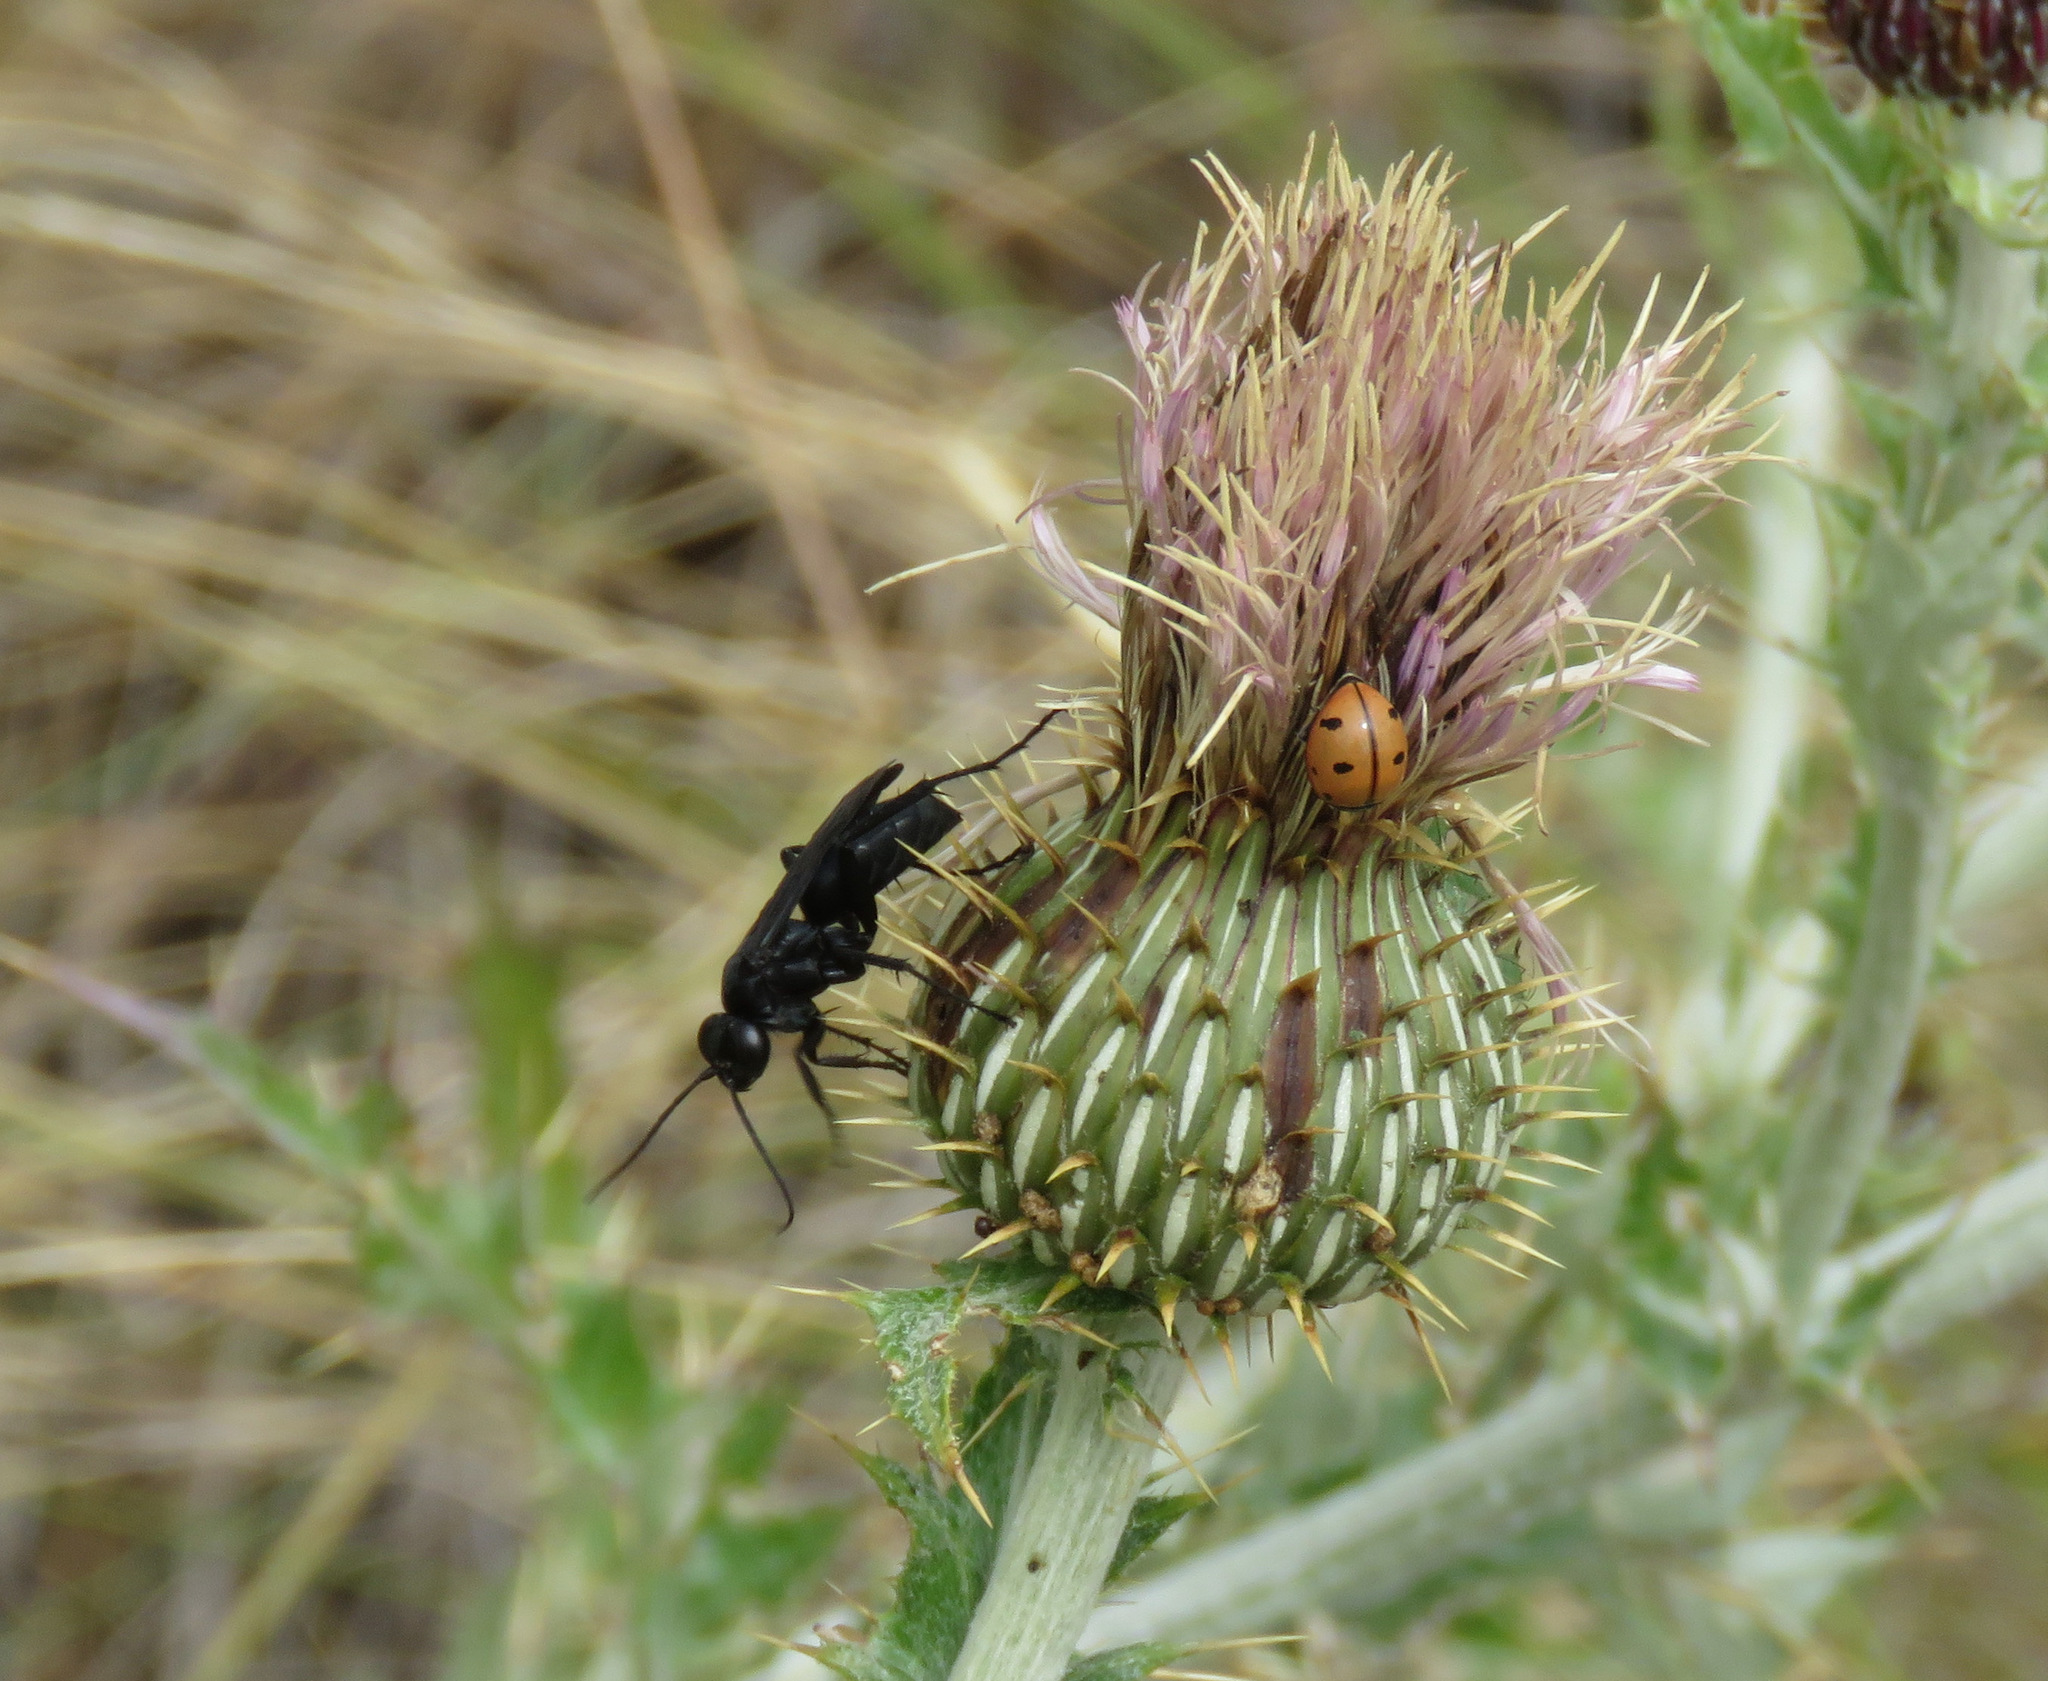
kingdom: Animalia
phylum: Arthropoda
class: Insecta
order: Coleoptera
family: Coccinellidae
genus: Coccinella
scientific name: Coccinella novemnotata
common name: Nine-spotted lady beetle
